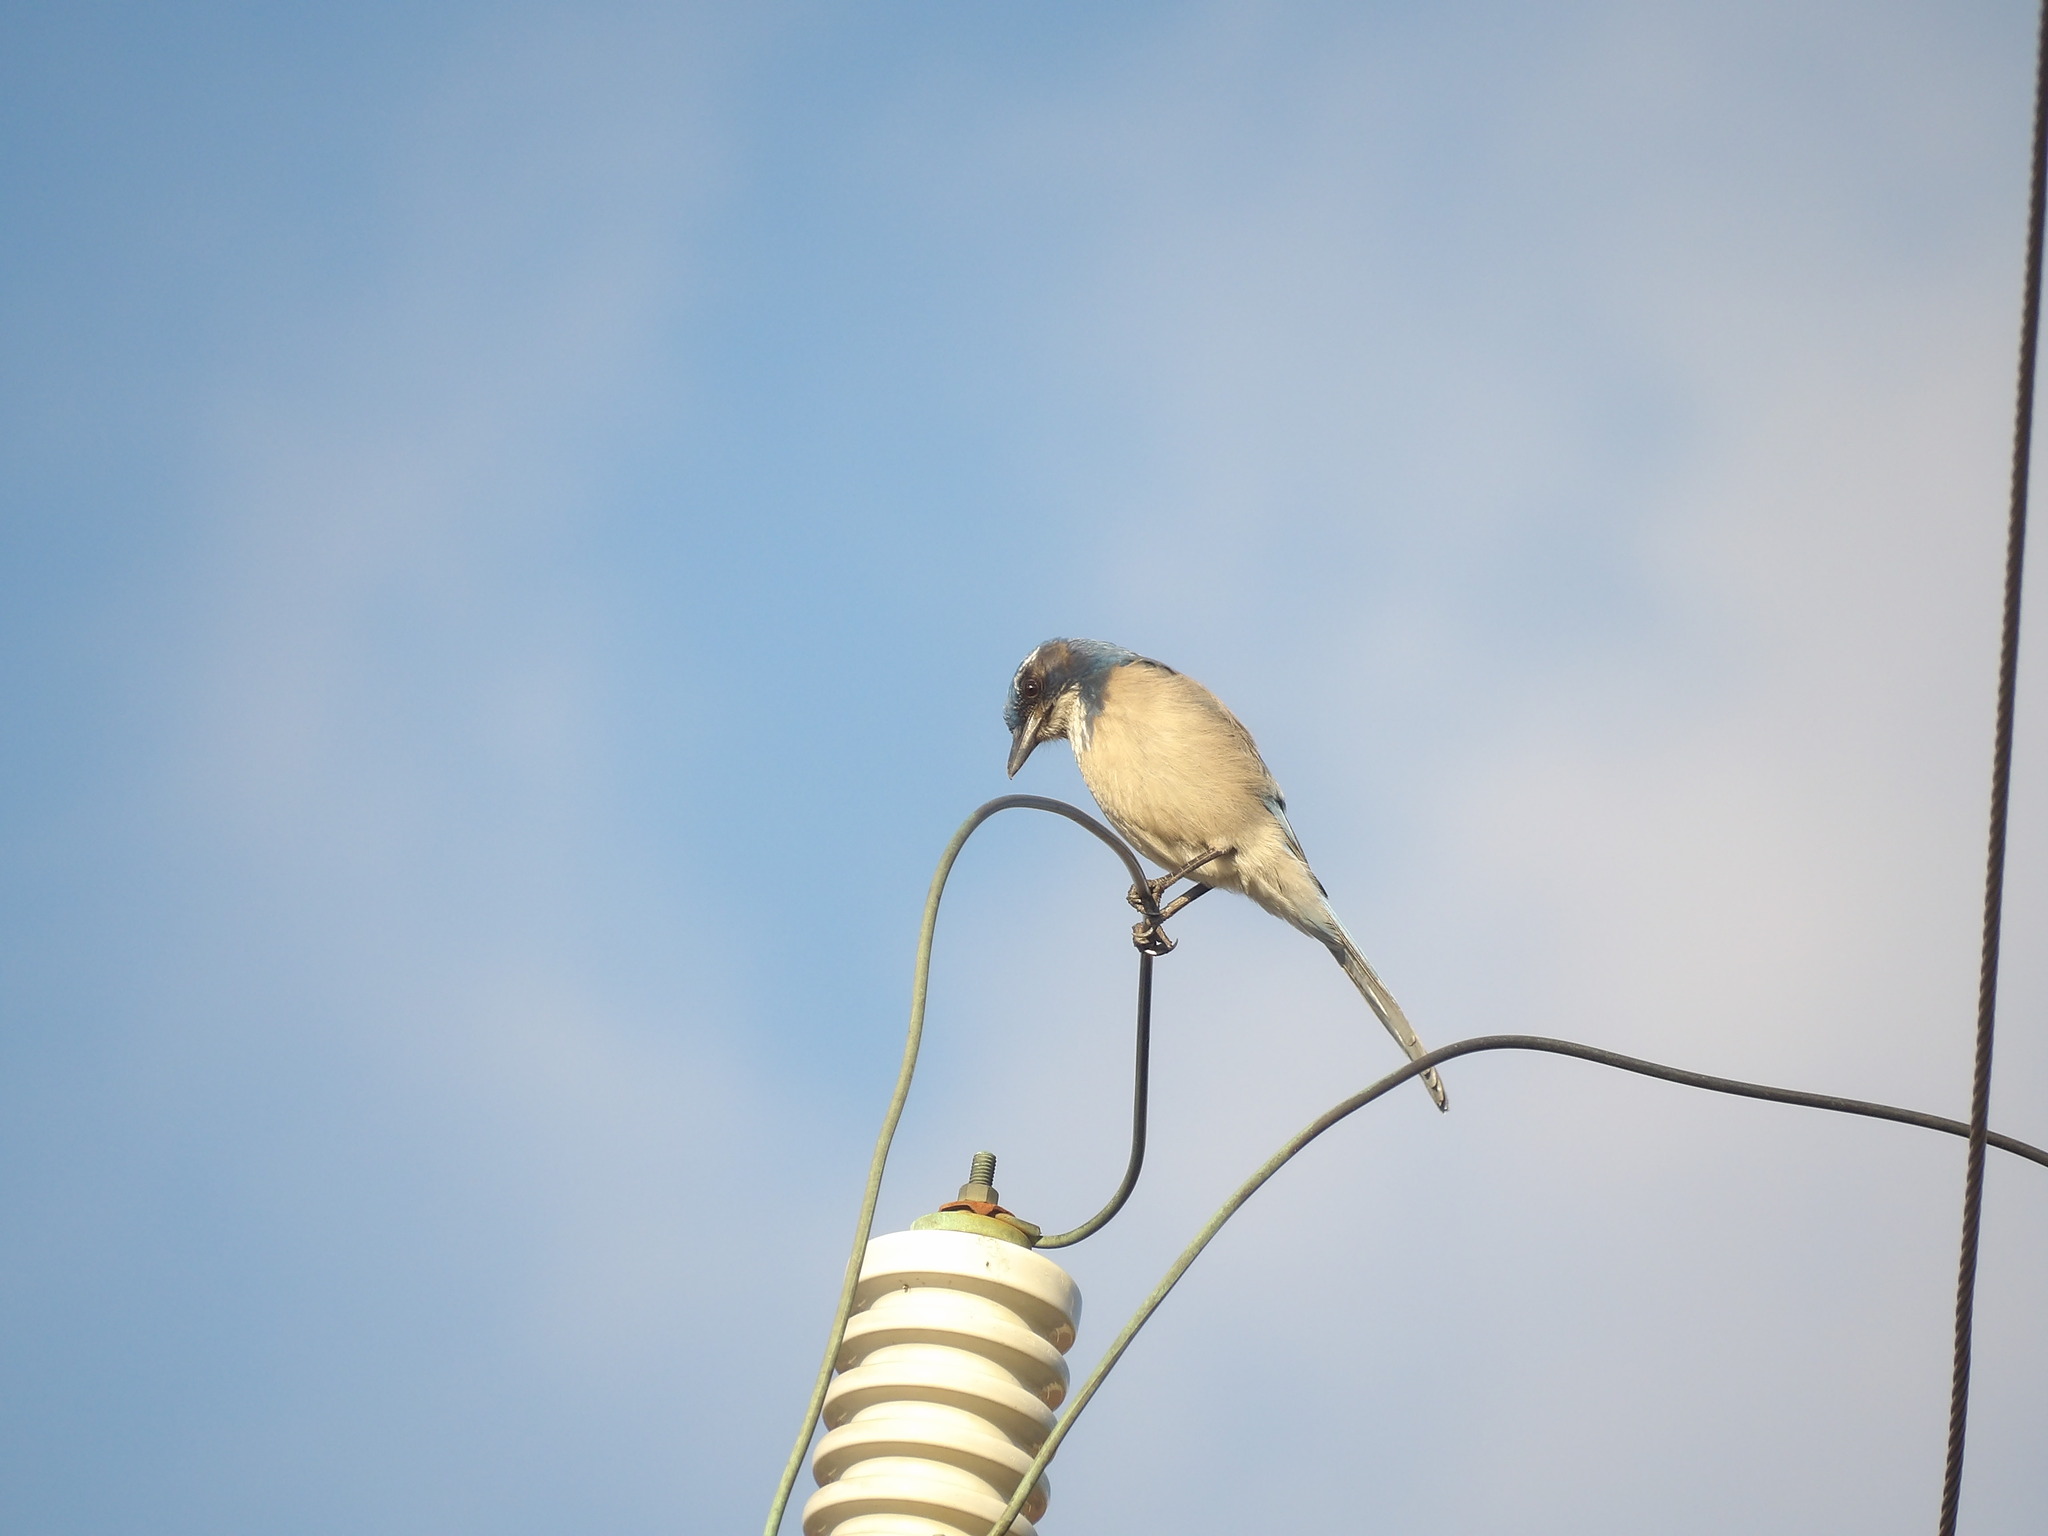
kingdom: Animalia
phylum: Chordata
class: Aves
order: Passeriformes
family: Corvidae
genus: Aphelocoma
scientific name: Aphelocoma californica
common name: California scrub-jay
